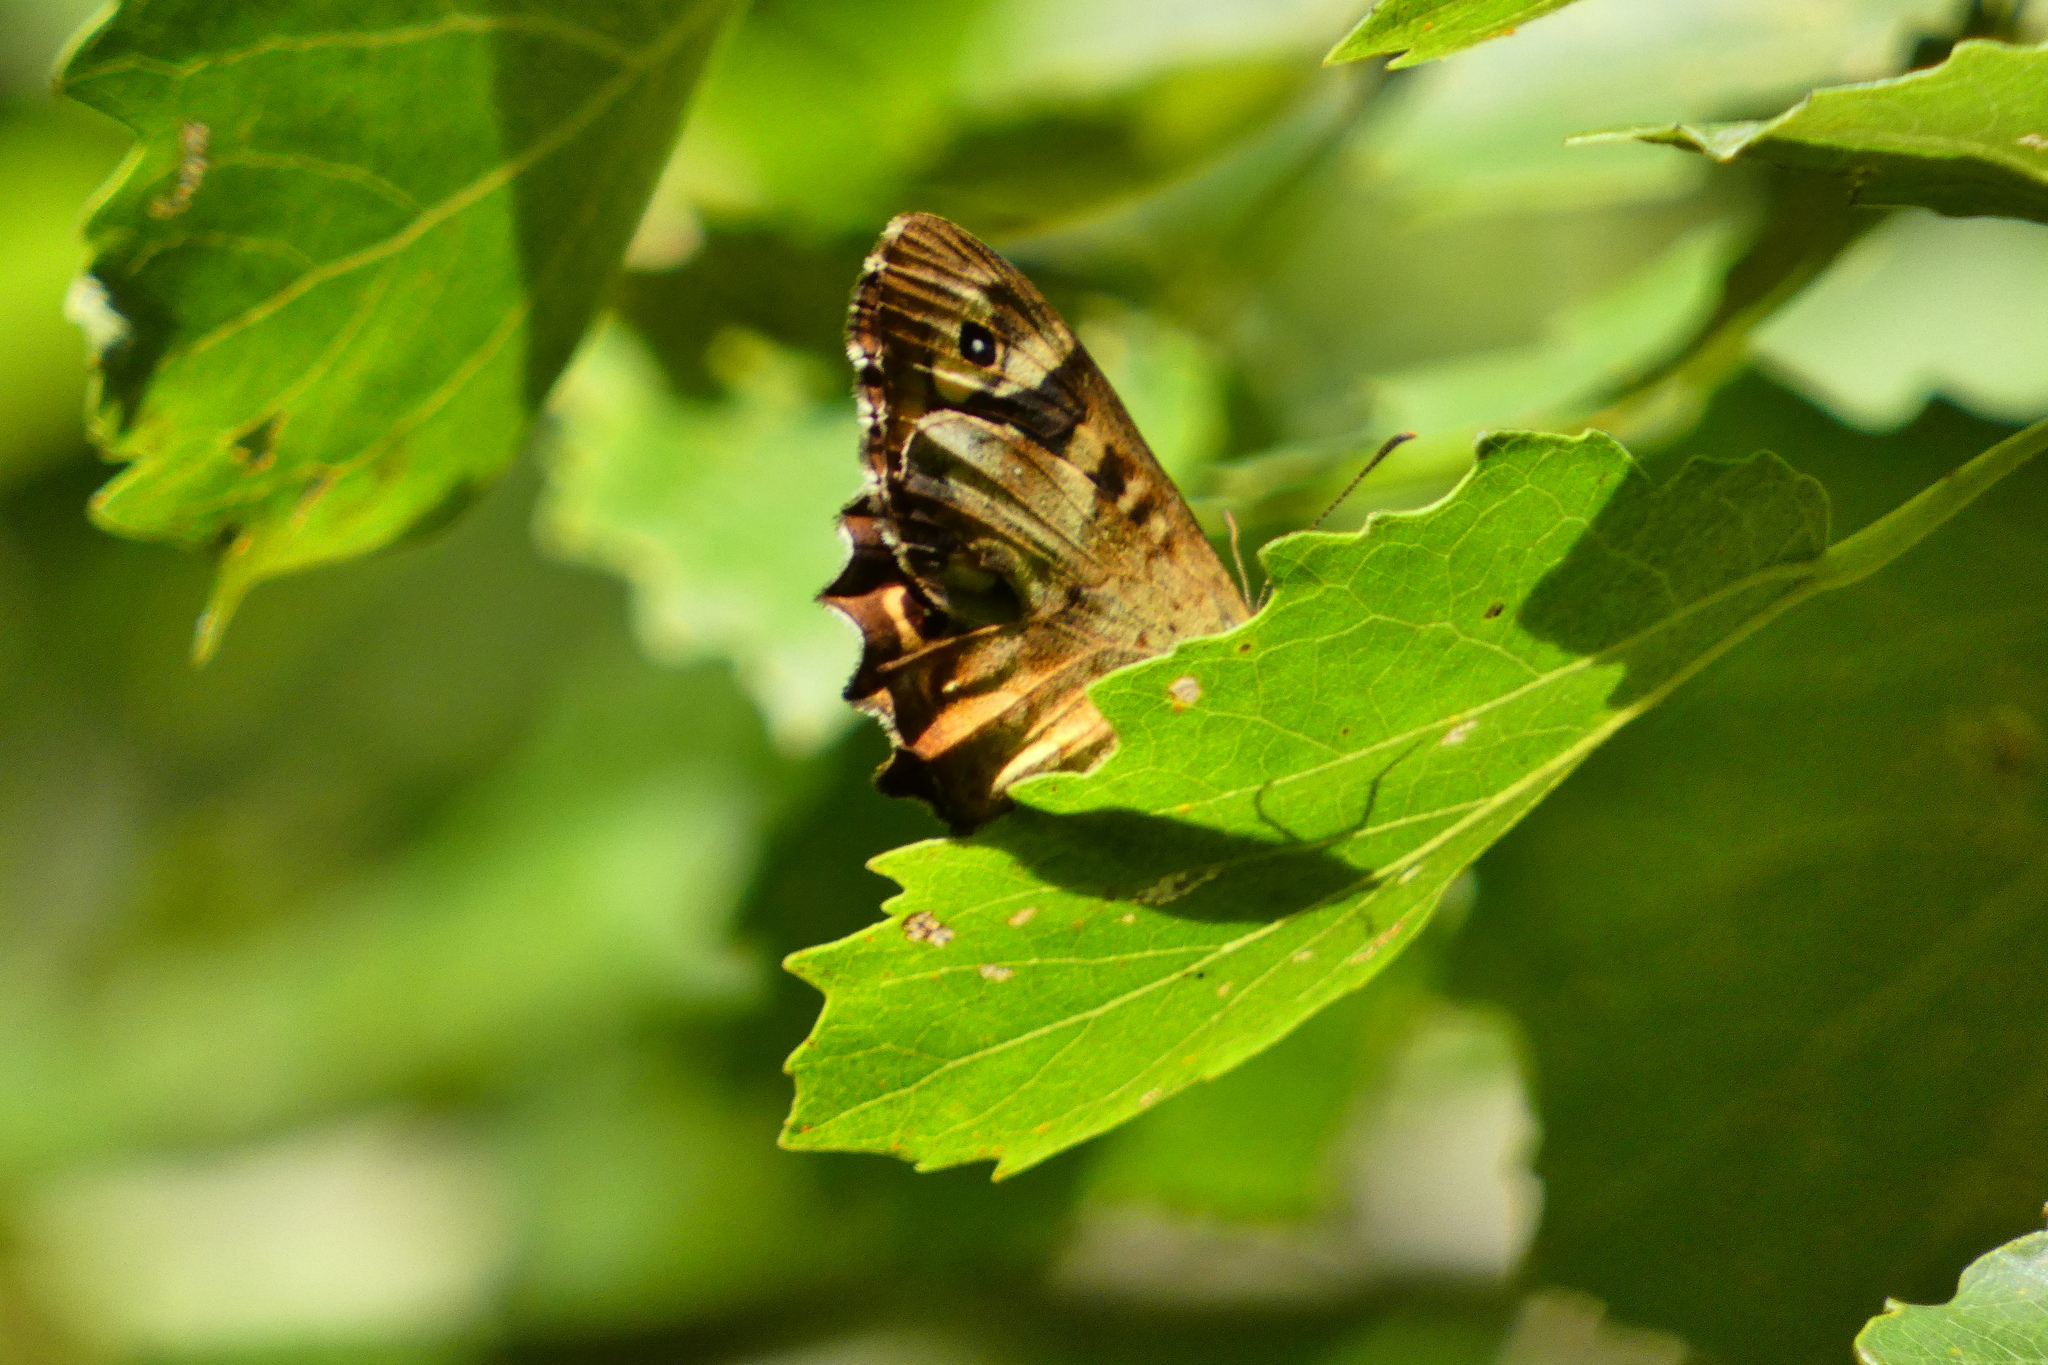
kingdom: Animalia
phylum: Arthropoda
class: Insecta
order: Lepidoptera
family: Nymphalidae
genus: Pararge
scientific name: Pararge aegeria
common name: Speckled wood
